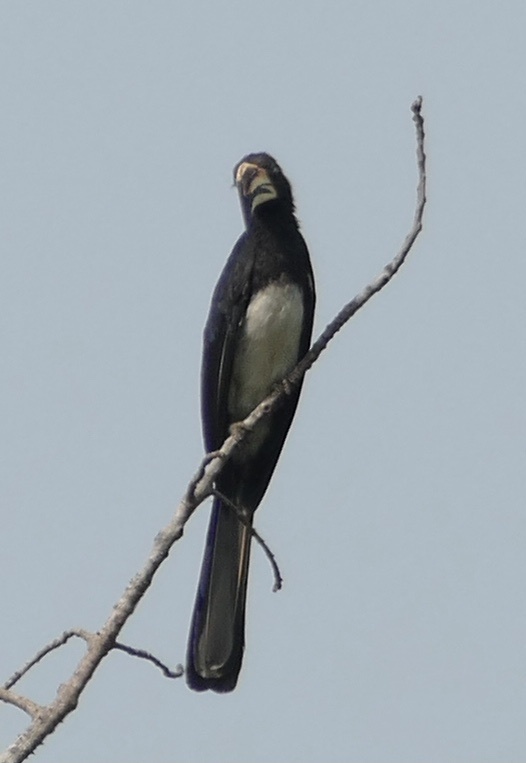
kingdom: Animalia
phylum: Chordata
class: Aves
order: Bucerotiformes
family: Bucerotidae
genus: Lophoceros
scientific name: Lophoceros fasciatus
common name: African pied hornbill
